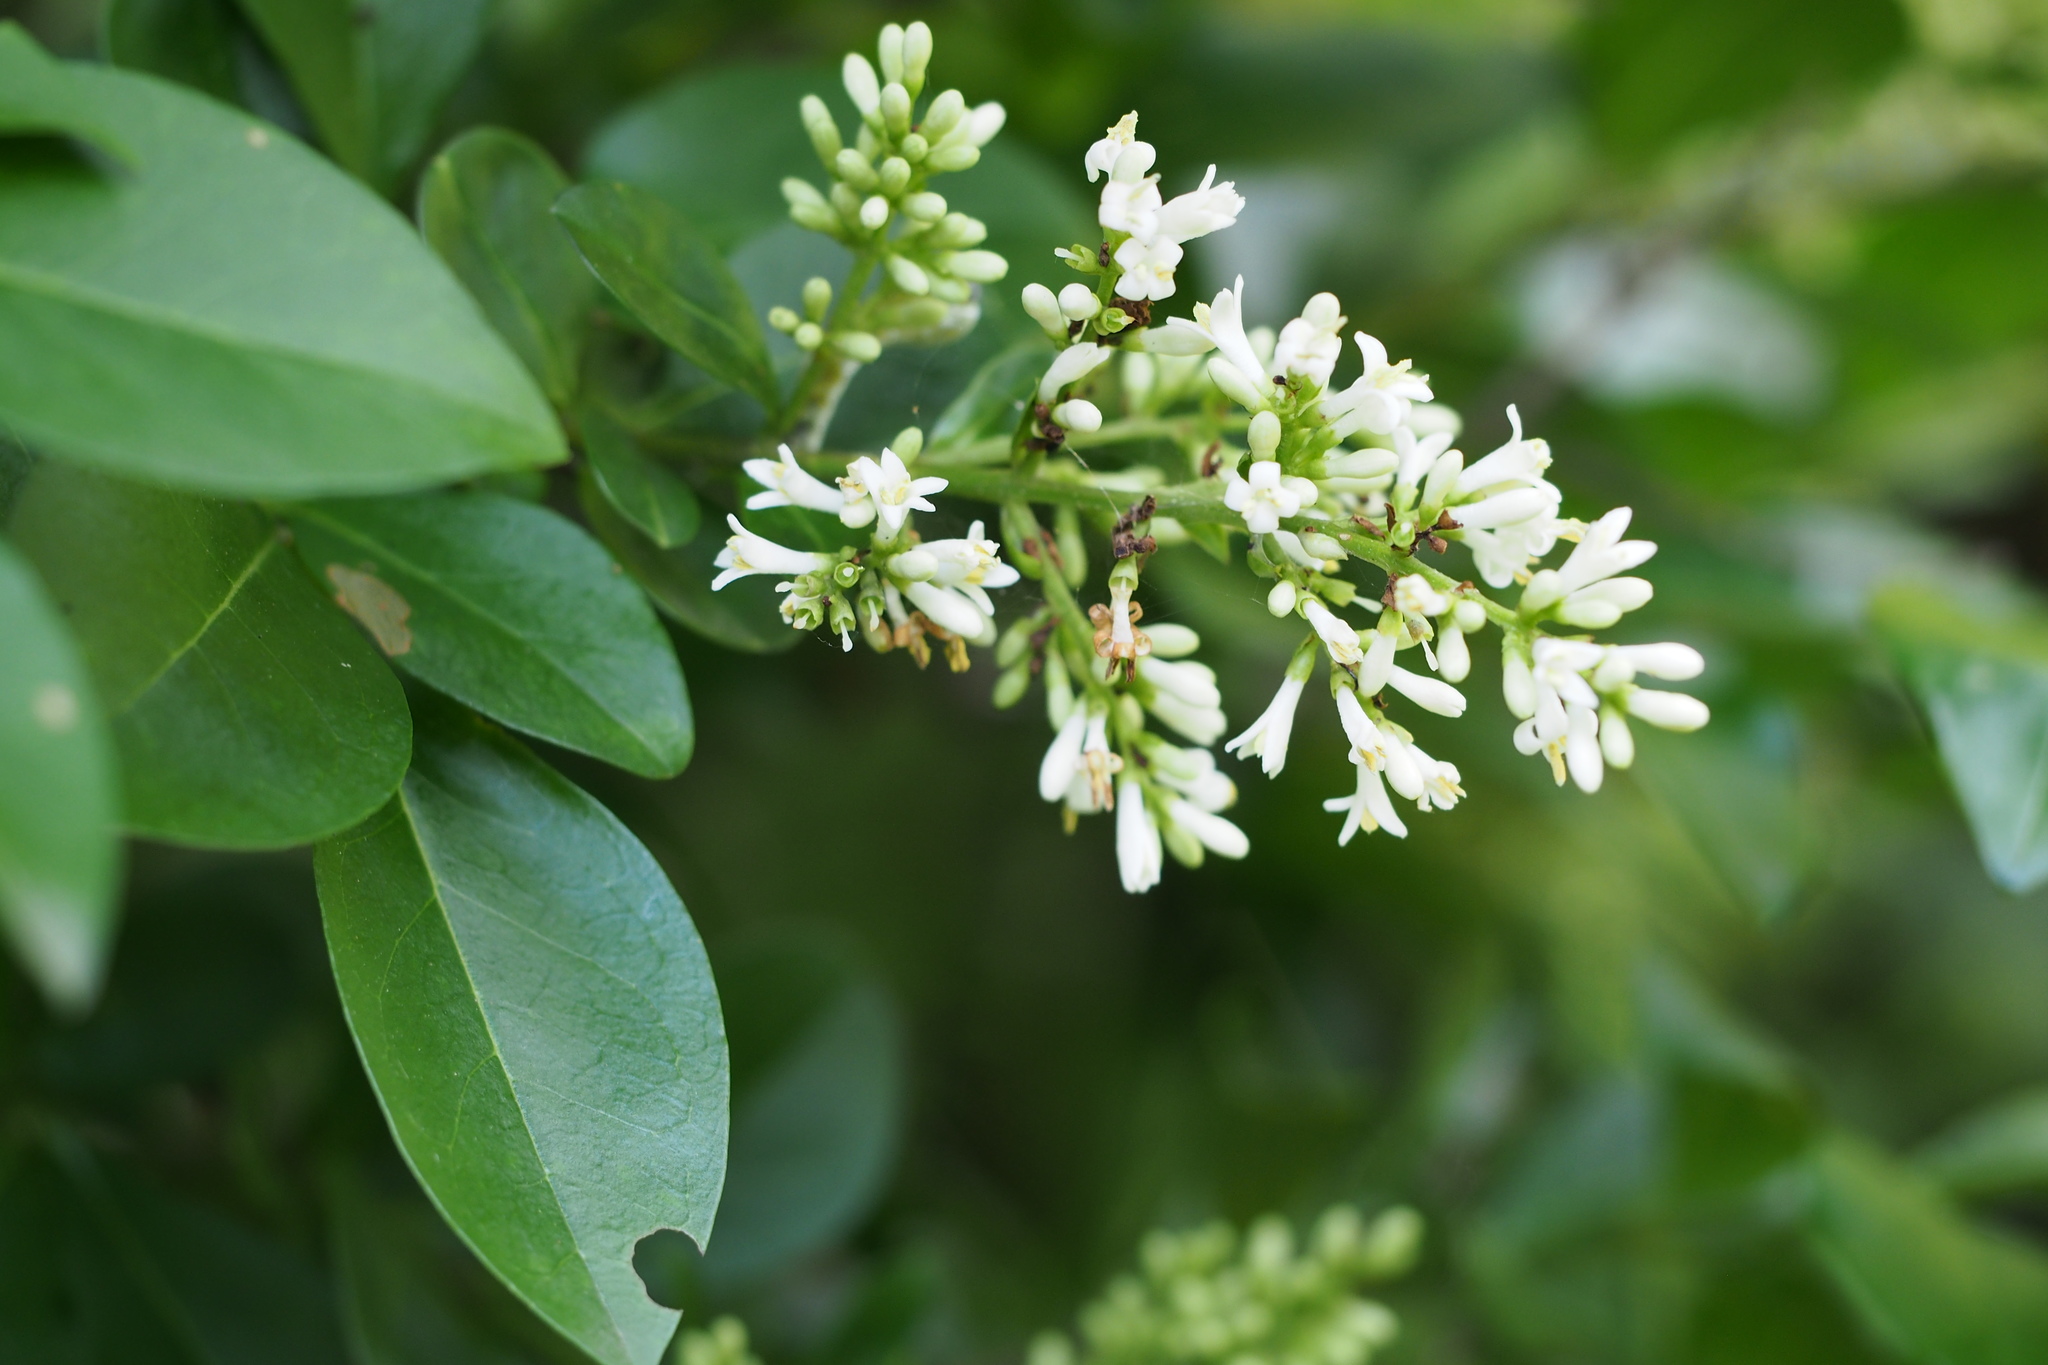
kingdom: Plantae
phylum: Tracheophyta
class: Magnoliopsida
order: Lamiales
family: Oleaceae
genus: Ligustrum
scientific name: Ligustrum obtusifolium
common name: Border privet
